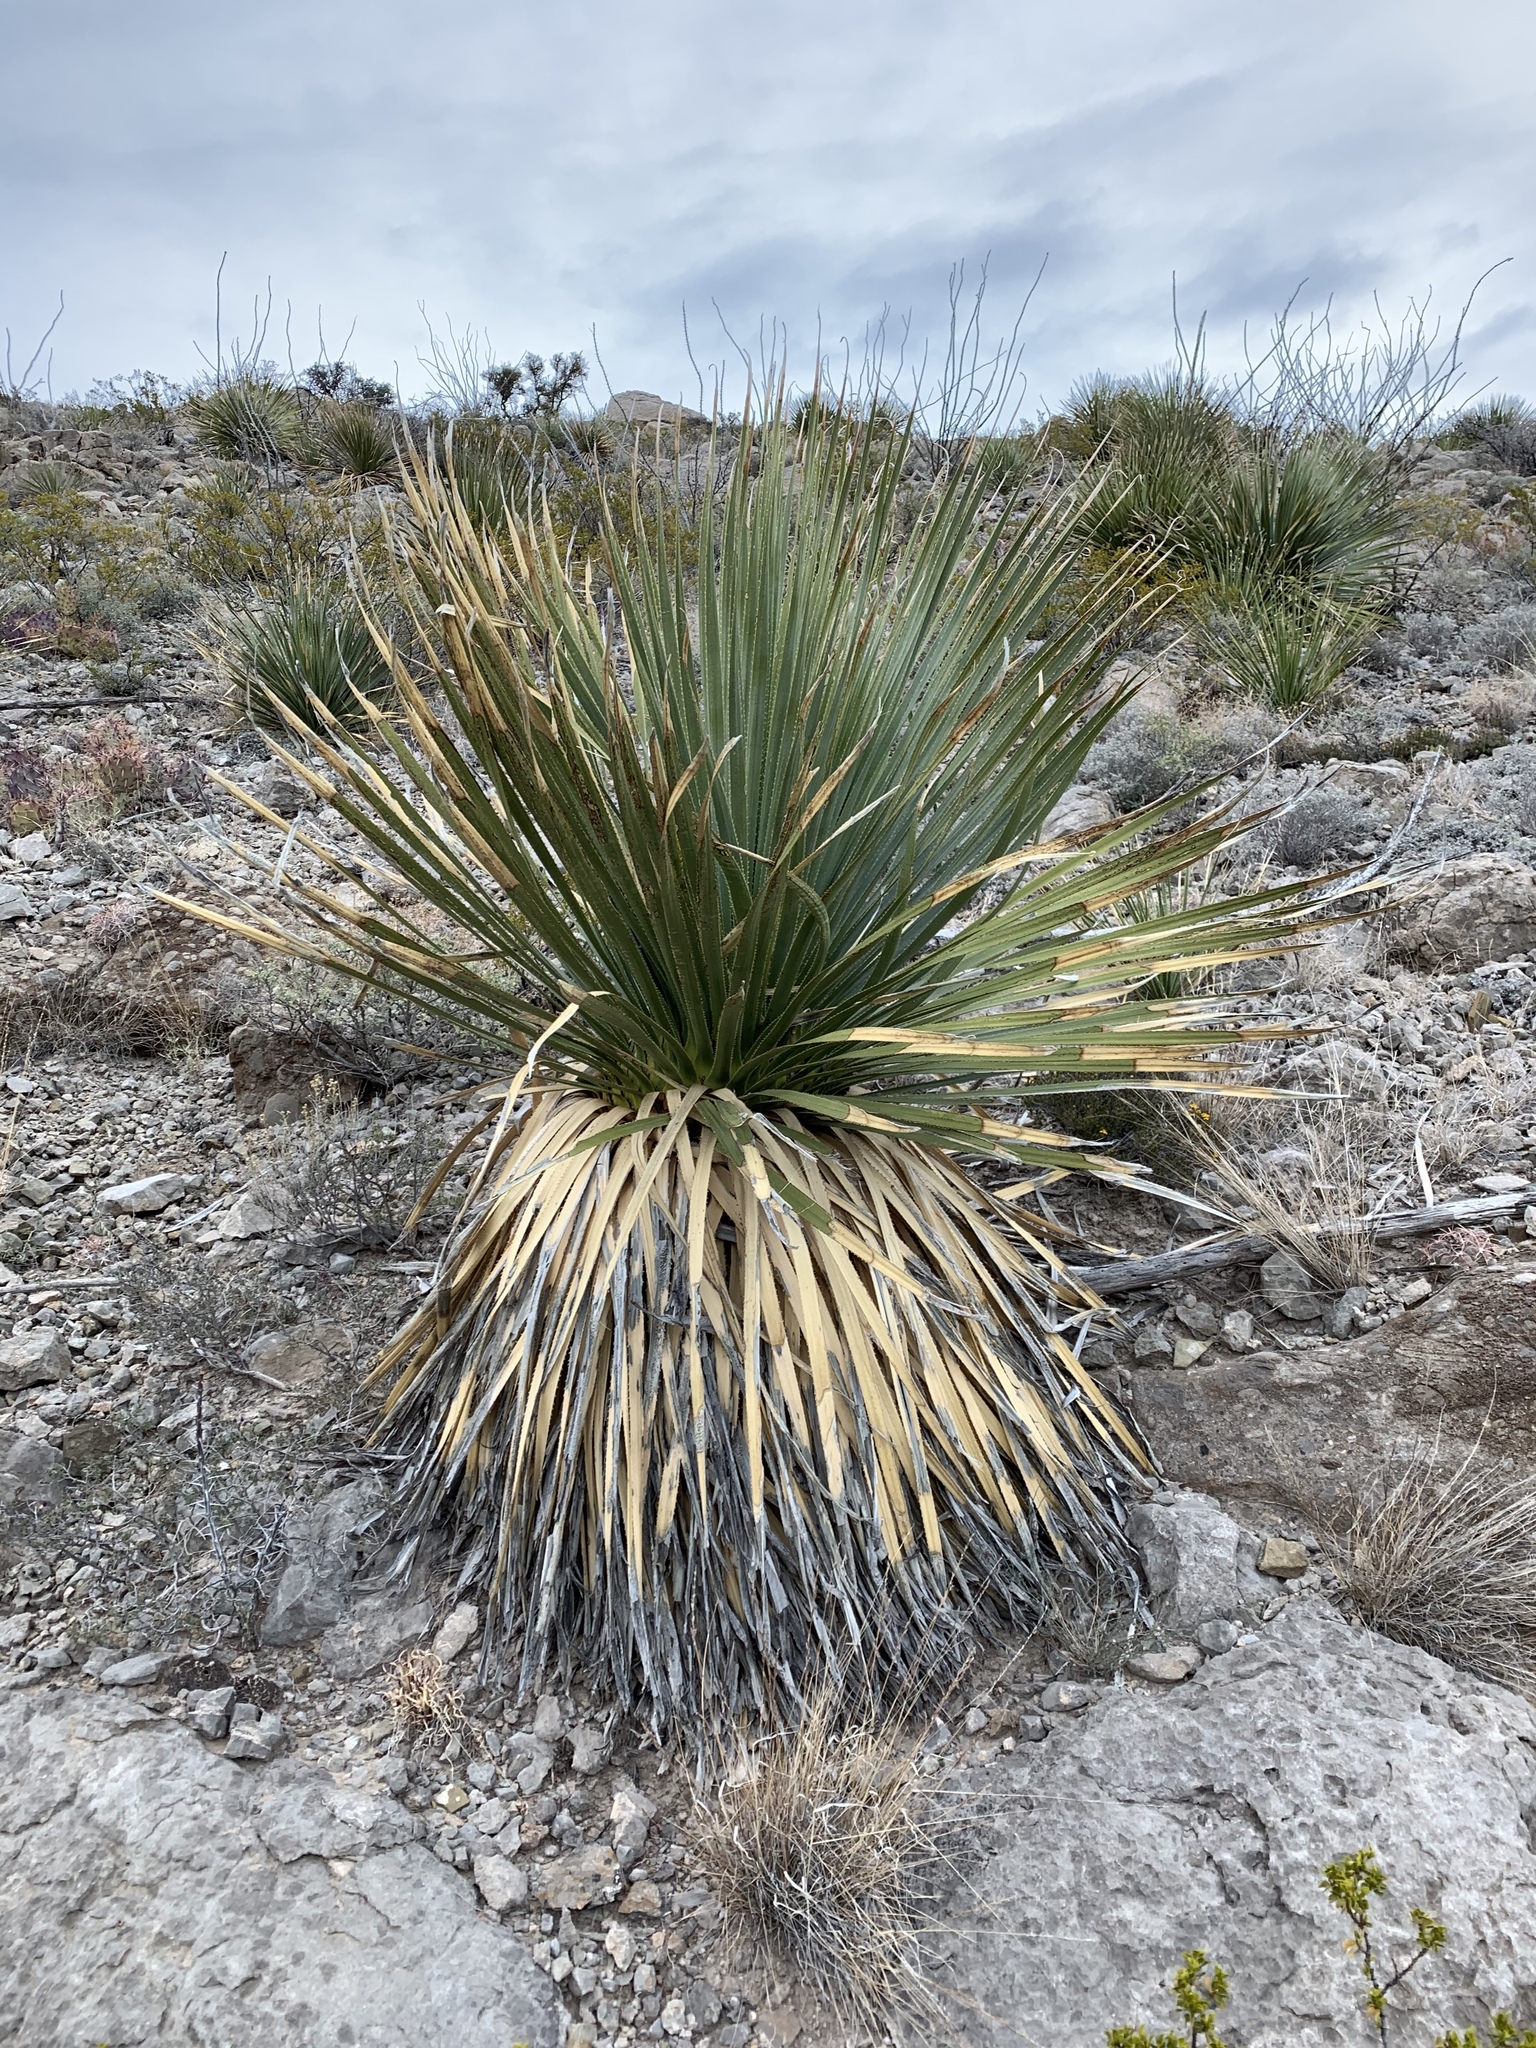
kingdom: Plantae
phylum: Tracheophyta
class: Liliopsida
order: Asparagales
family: Asparagaceae
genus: Dasylirion
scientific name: Dasylirion wheeleri
